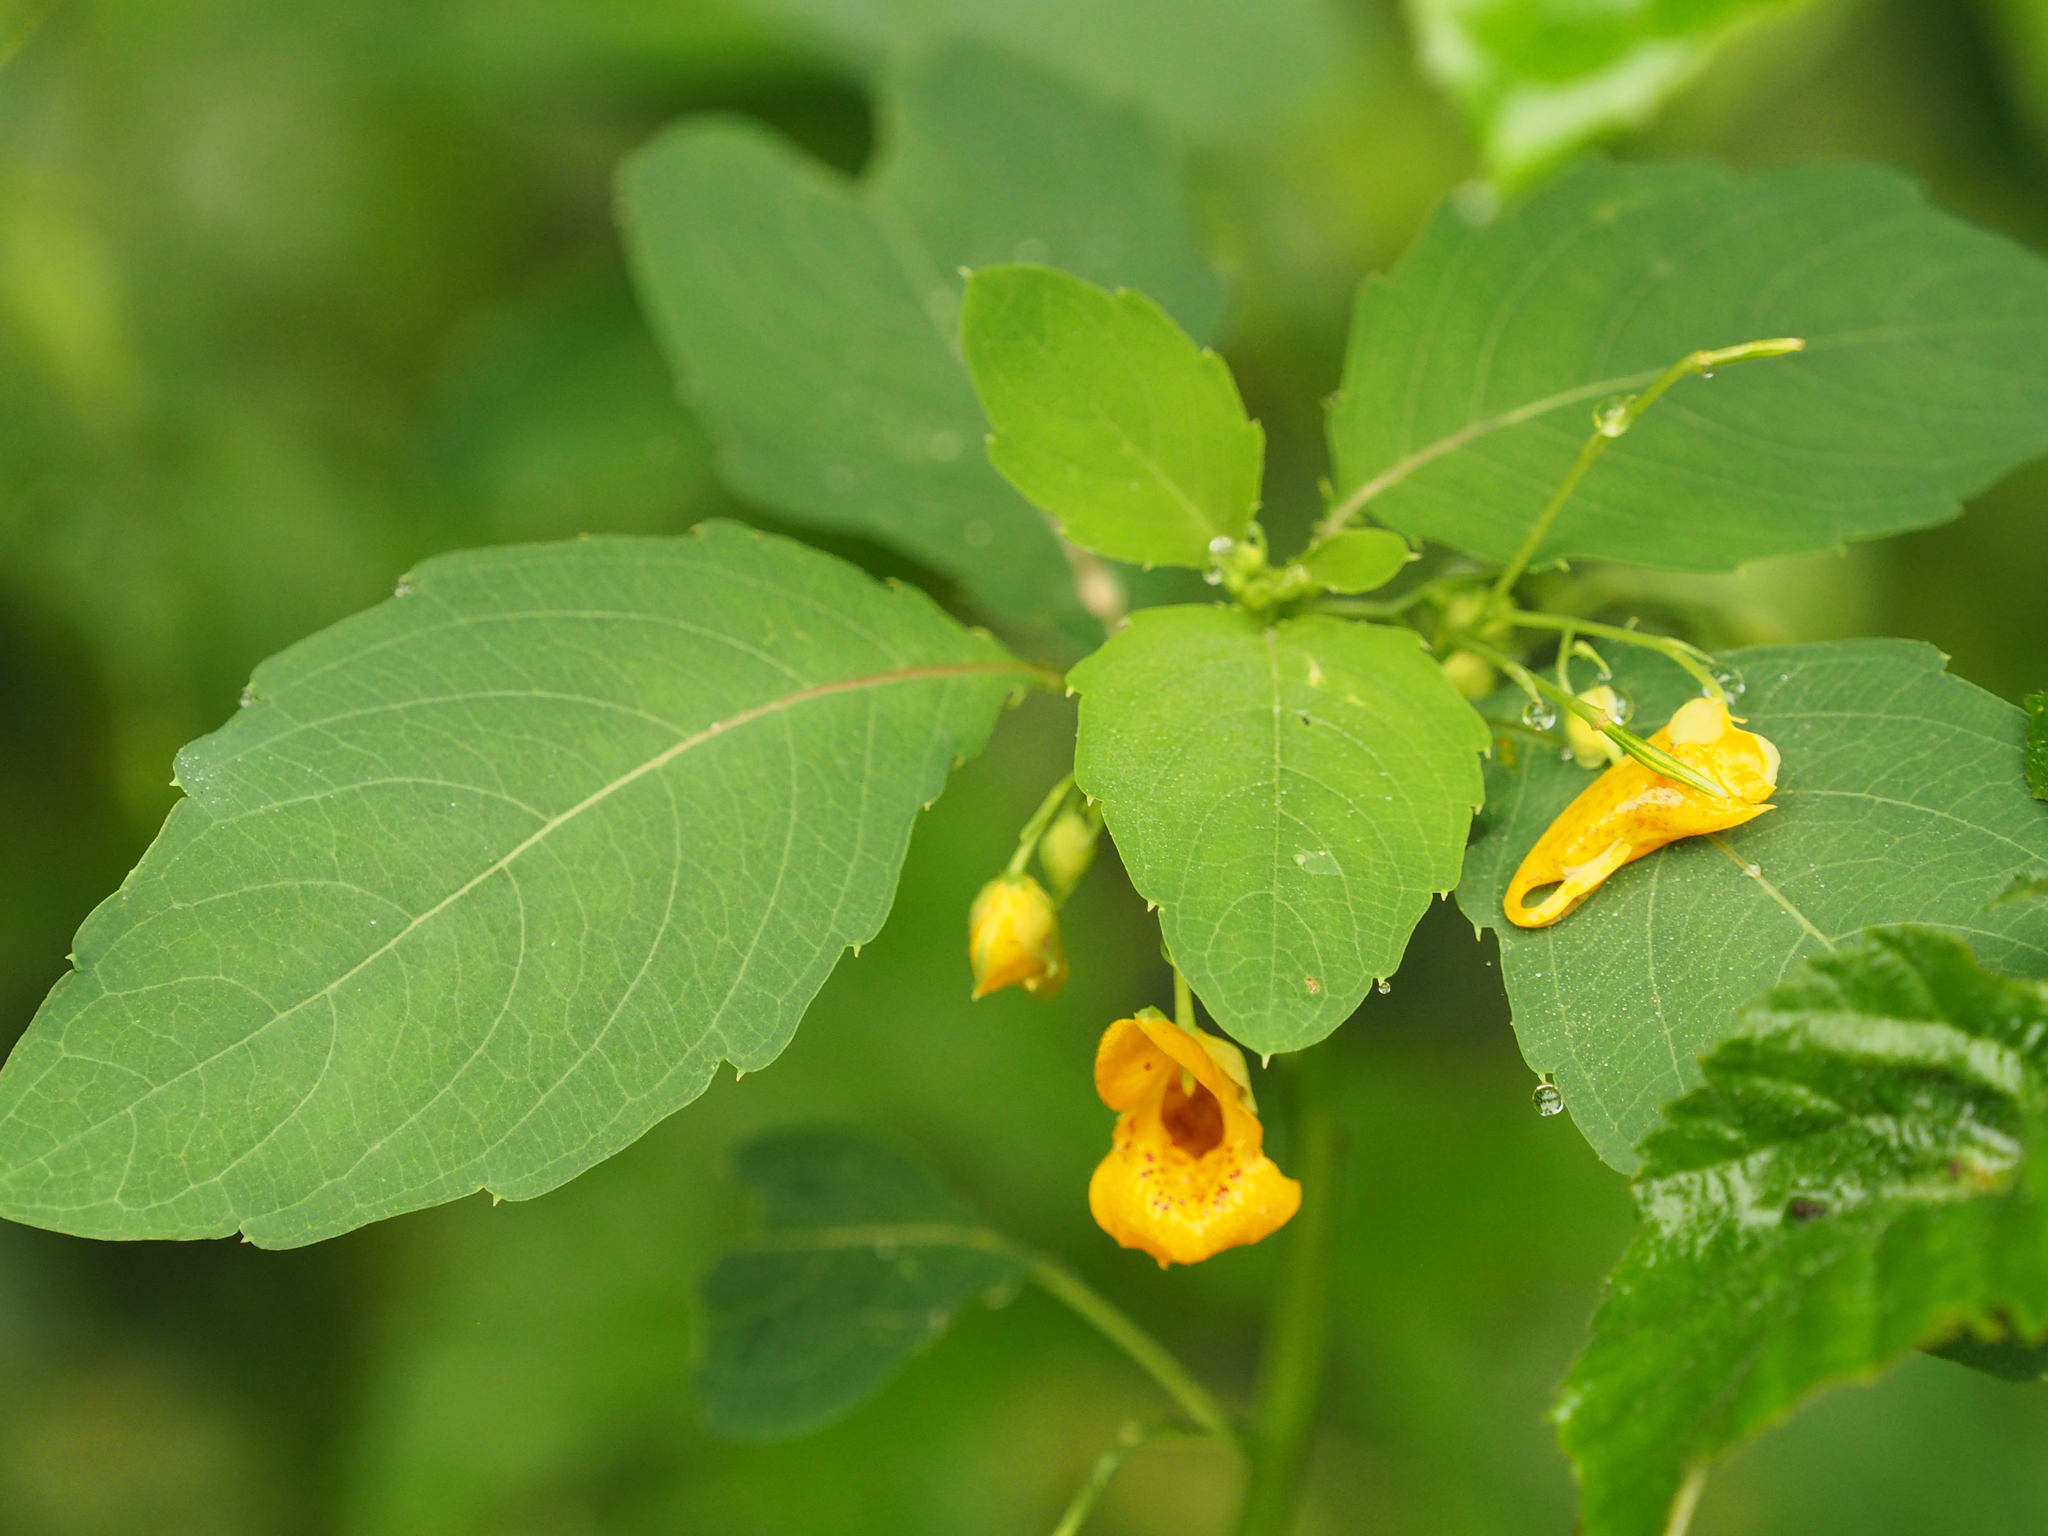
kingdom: Plantae
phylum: Tracheophyta
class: Magnoliopsida
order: Ericales
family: Balsaminaceae
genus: Impatiens
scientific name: Impatiens capensis
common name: Orange balsam
